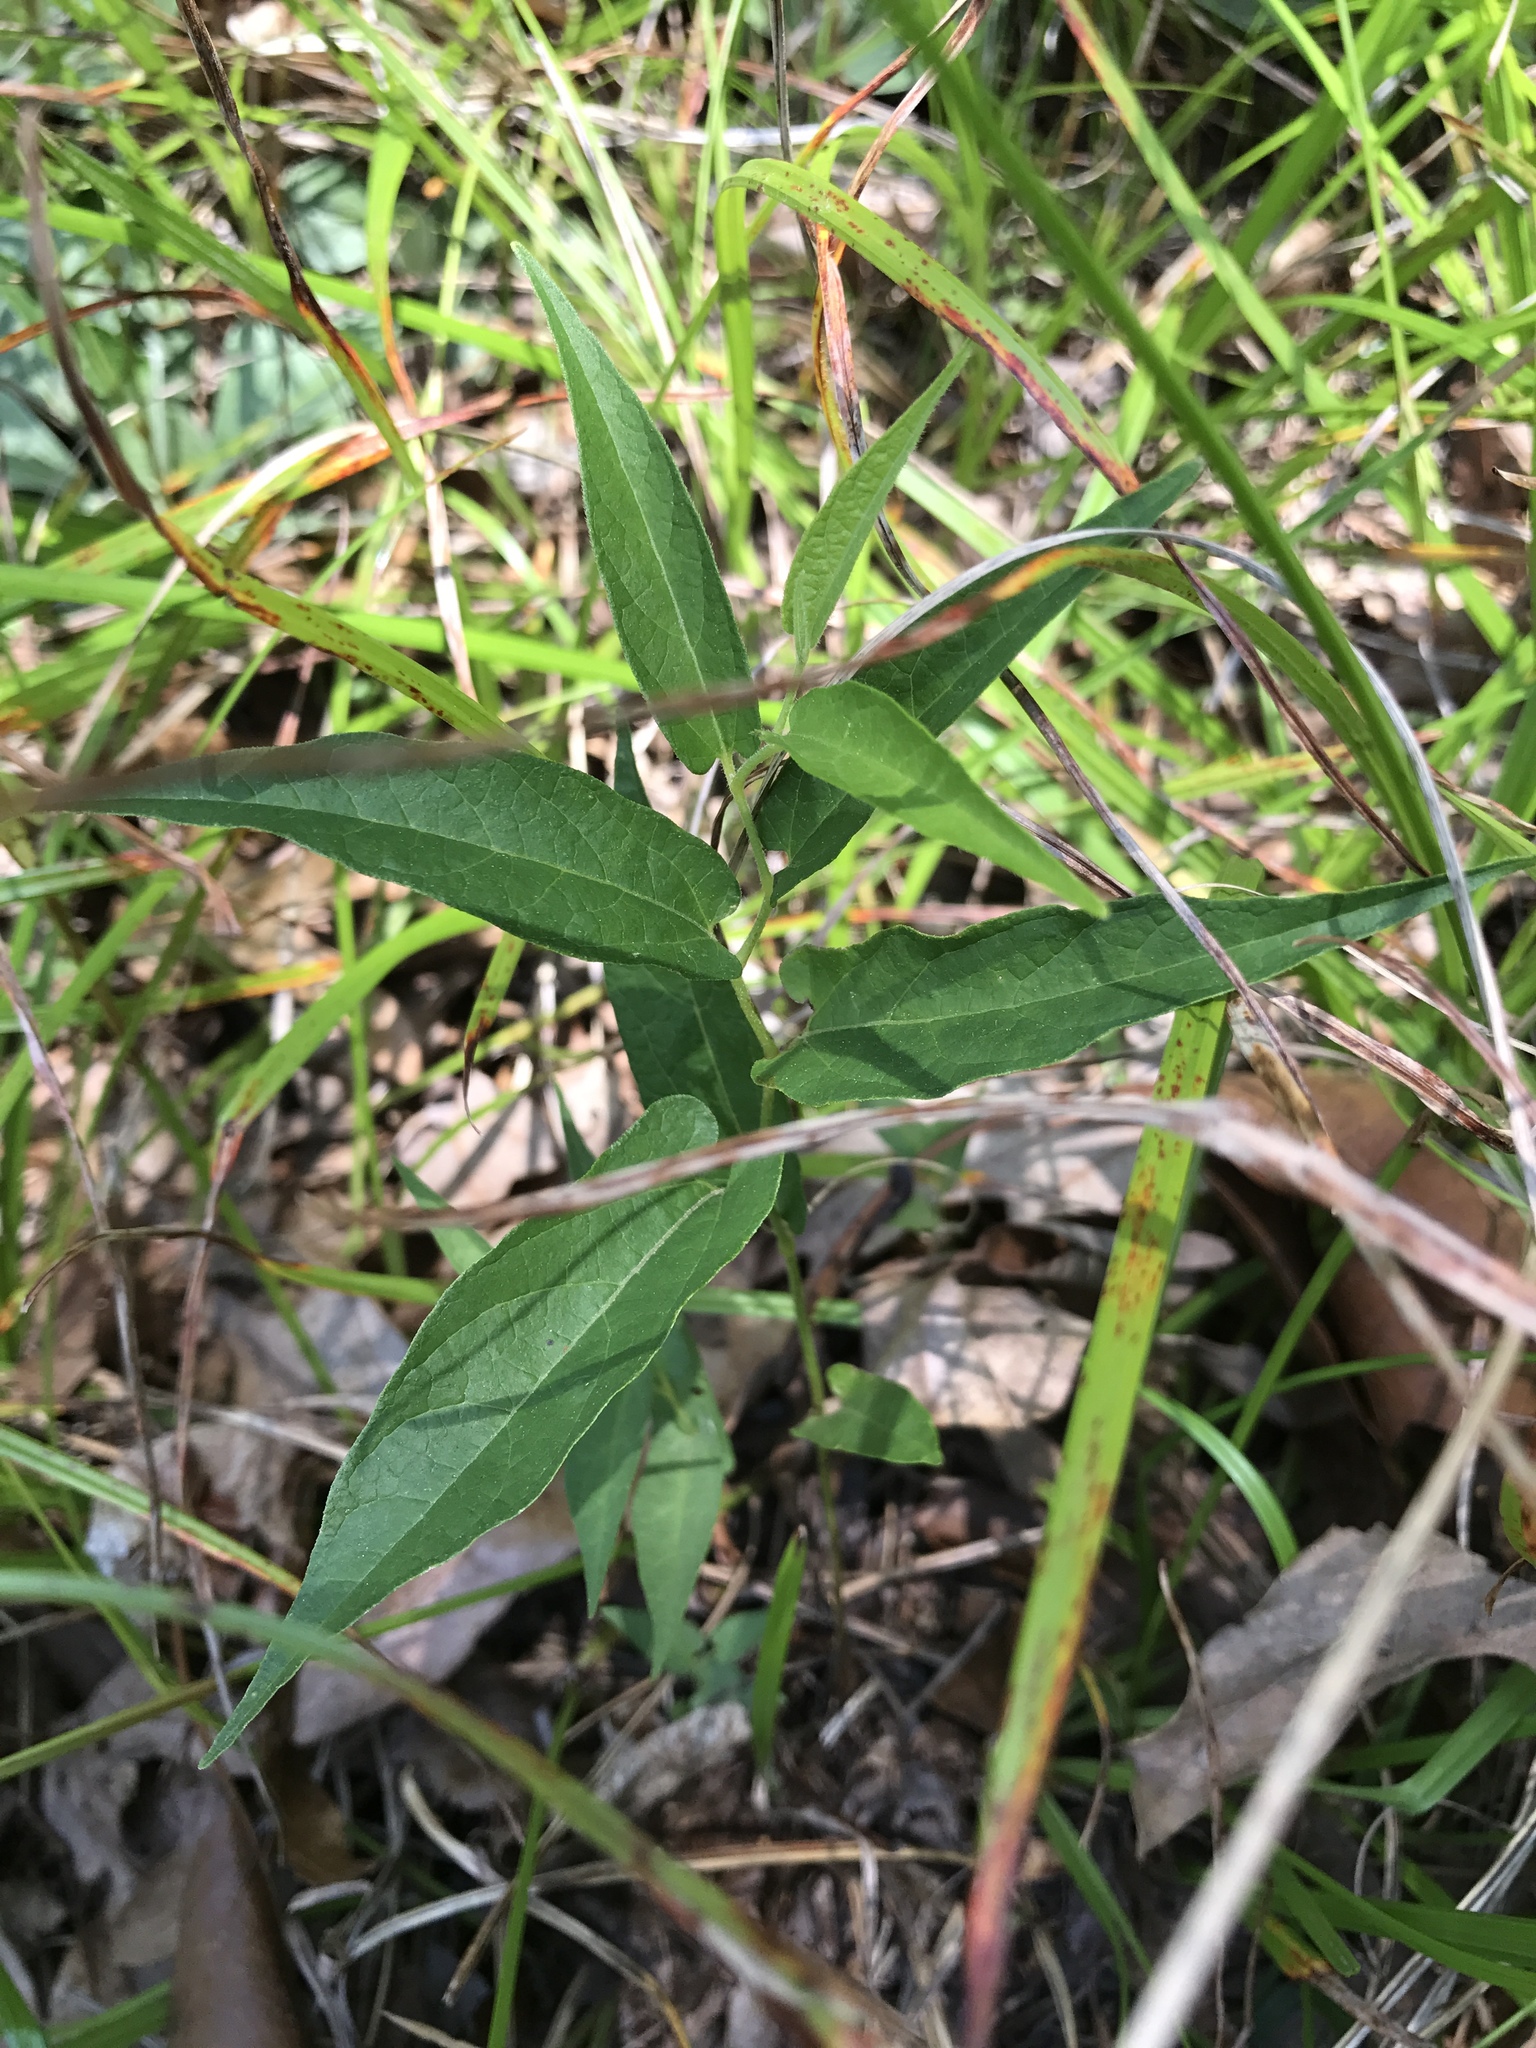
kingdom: Plantae
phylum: Tracheophyta
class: Magnoliopsida
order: Piperales
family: Aristolochiaceae
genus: Endodeca
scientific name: Endodeca serpentaria
